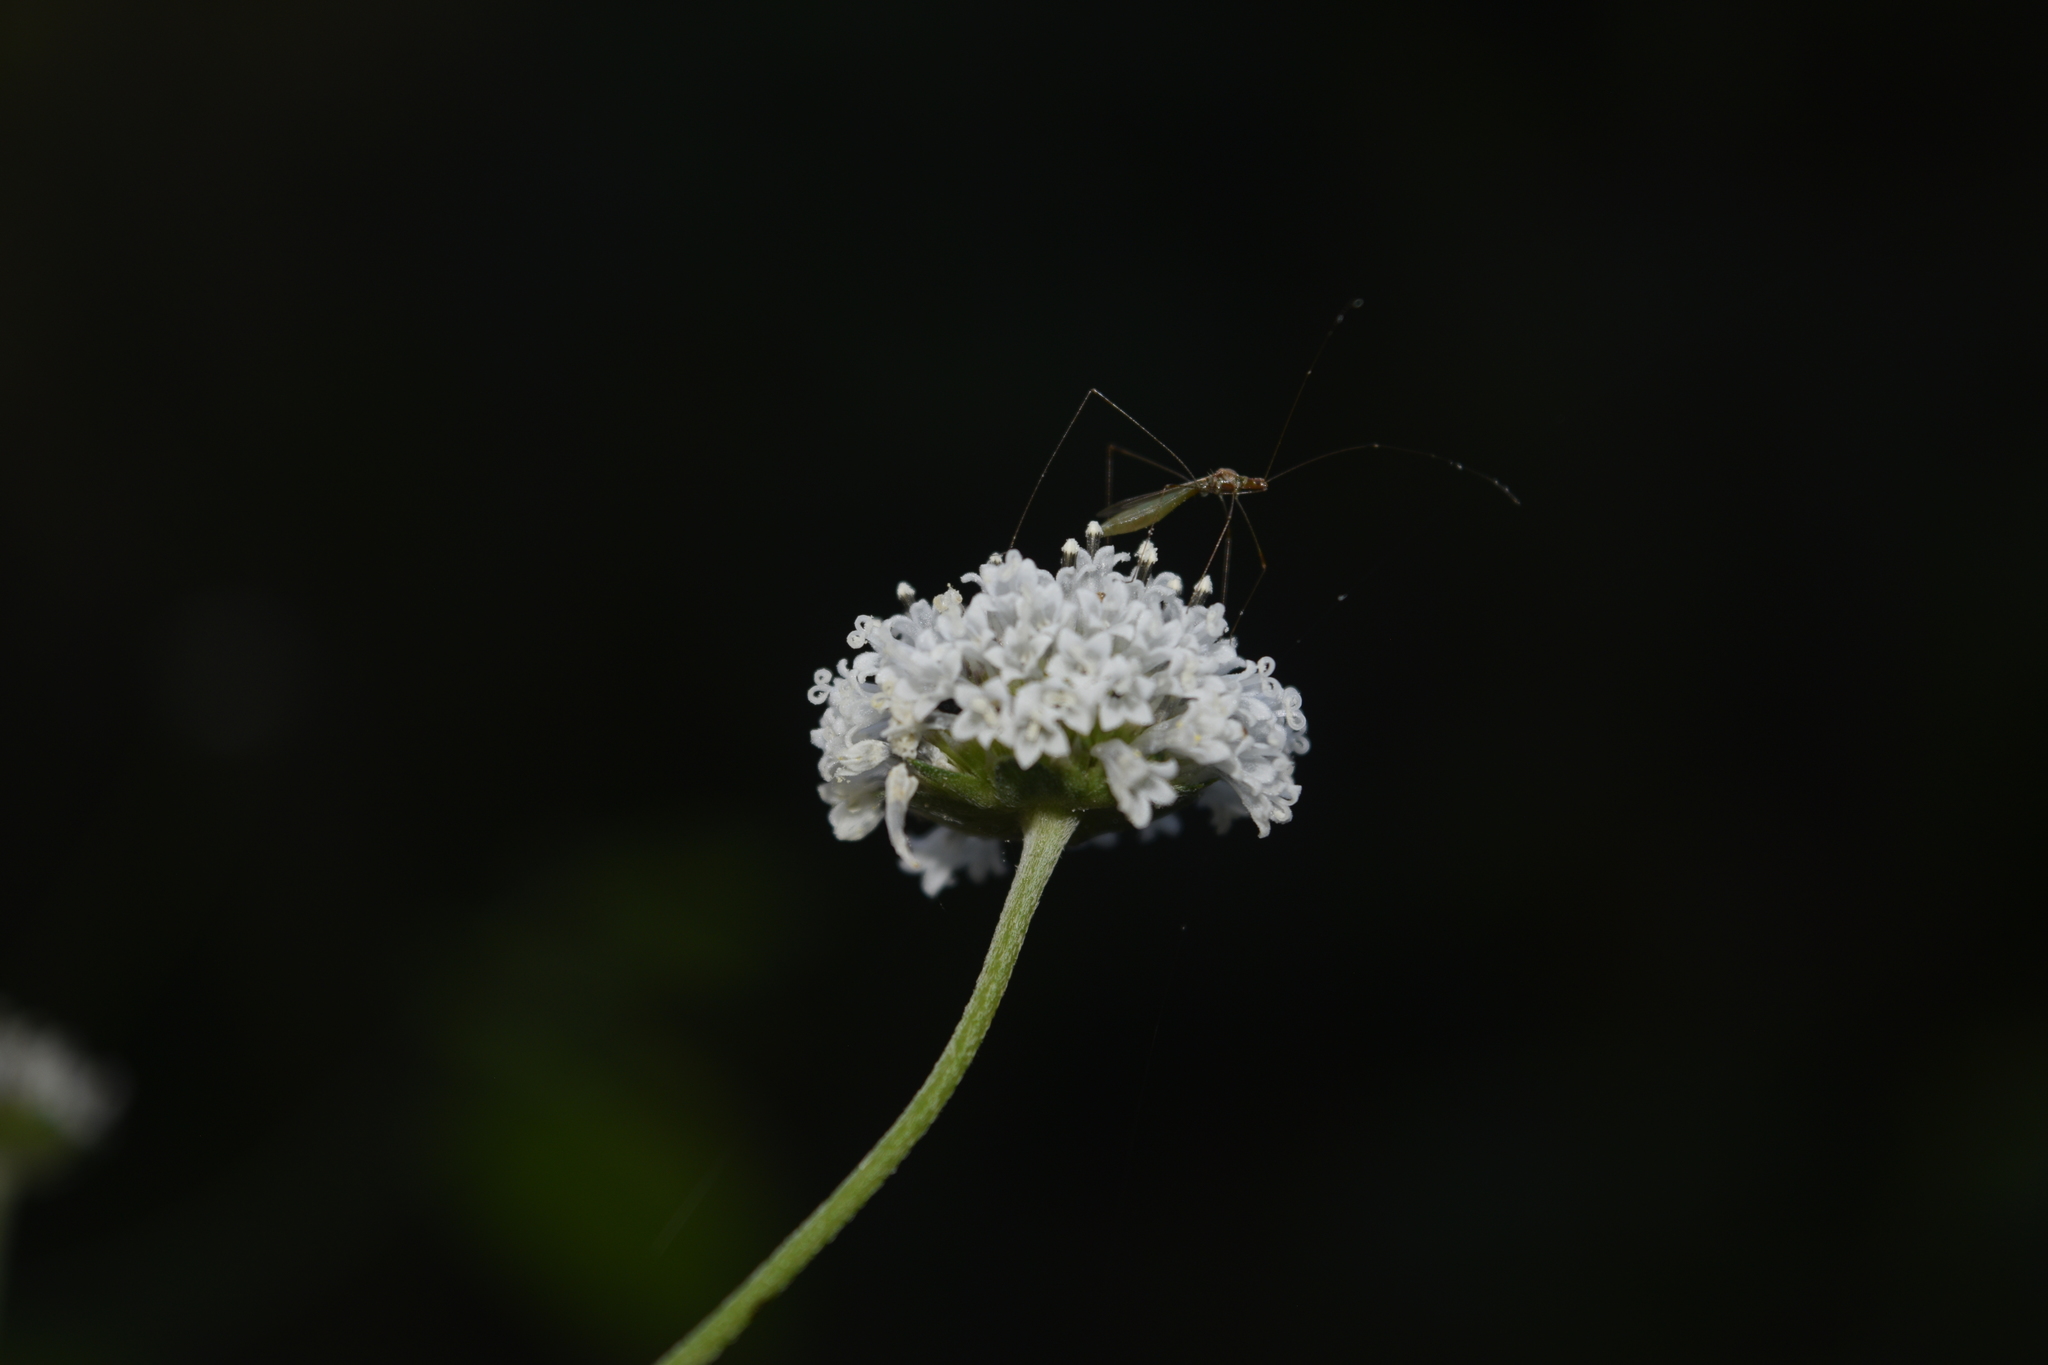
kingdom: Plantae
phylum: Tracheophyta
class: Magnoliopsida
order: Asterales
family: Asteraceae
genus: Melanthera
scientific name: Melanthera nivea
